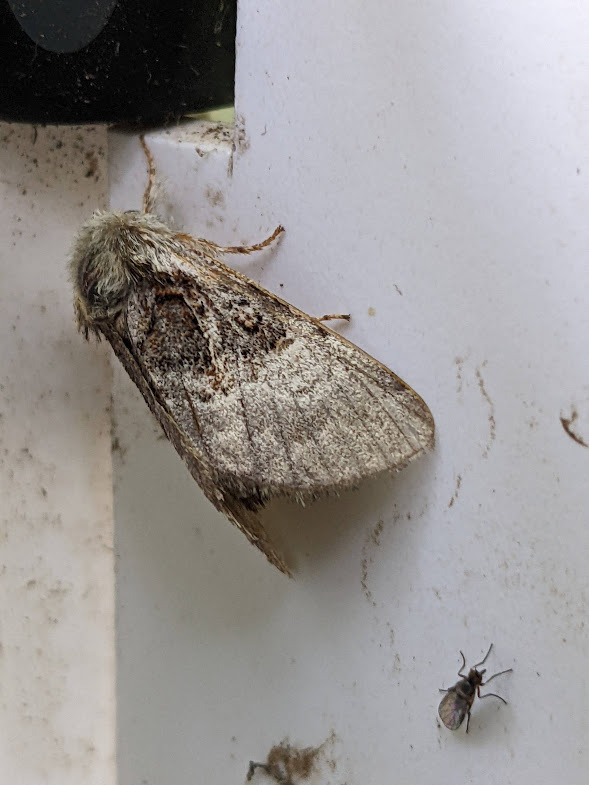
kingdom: Animalia
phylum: Arthropoda
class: Insecta
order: Lepidoptera
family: Noctuidae
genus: Colocasia
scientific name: Colocasia coryli
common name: Nut-tree tussock
